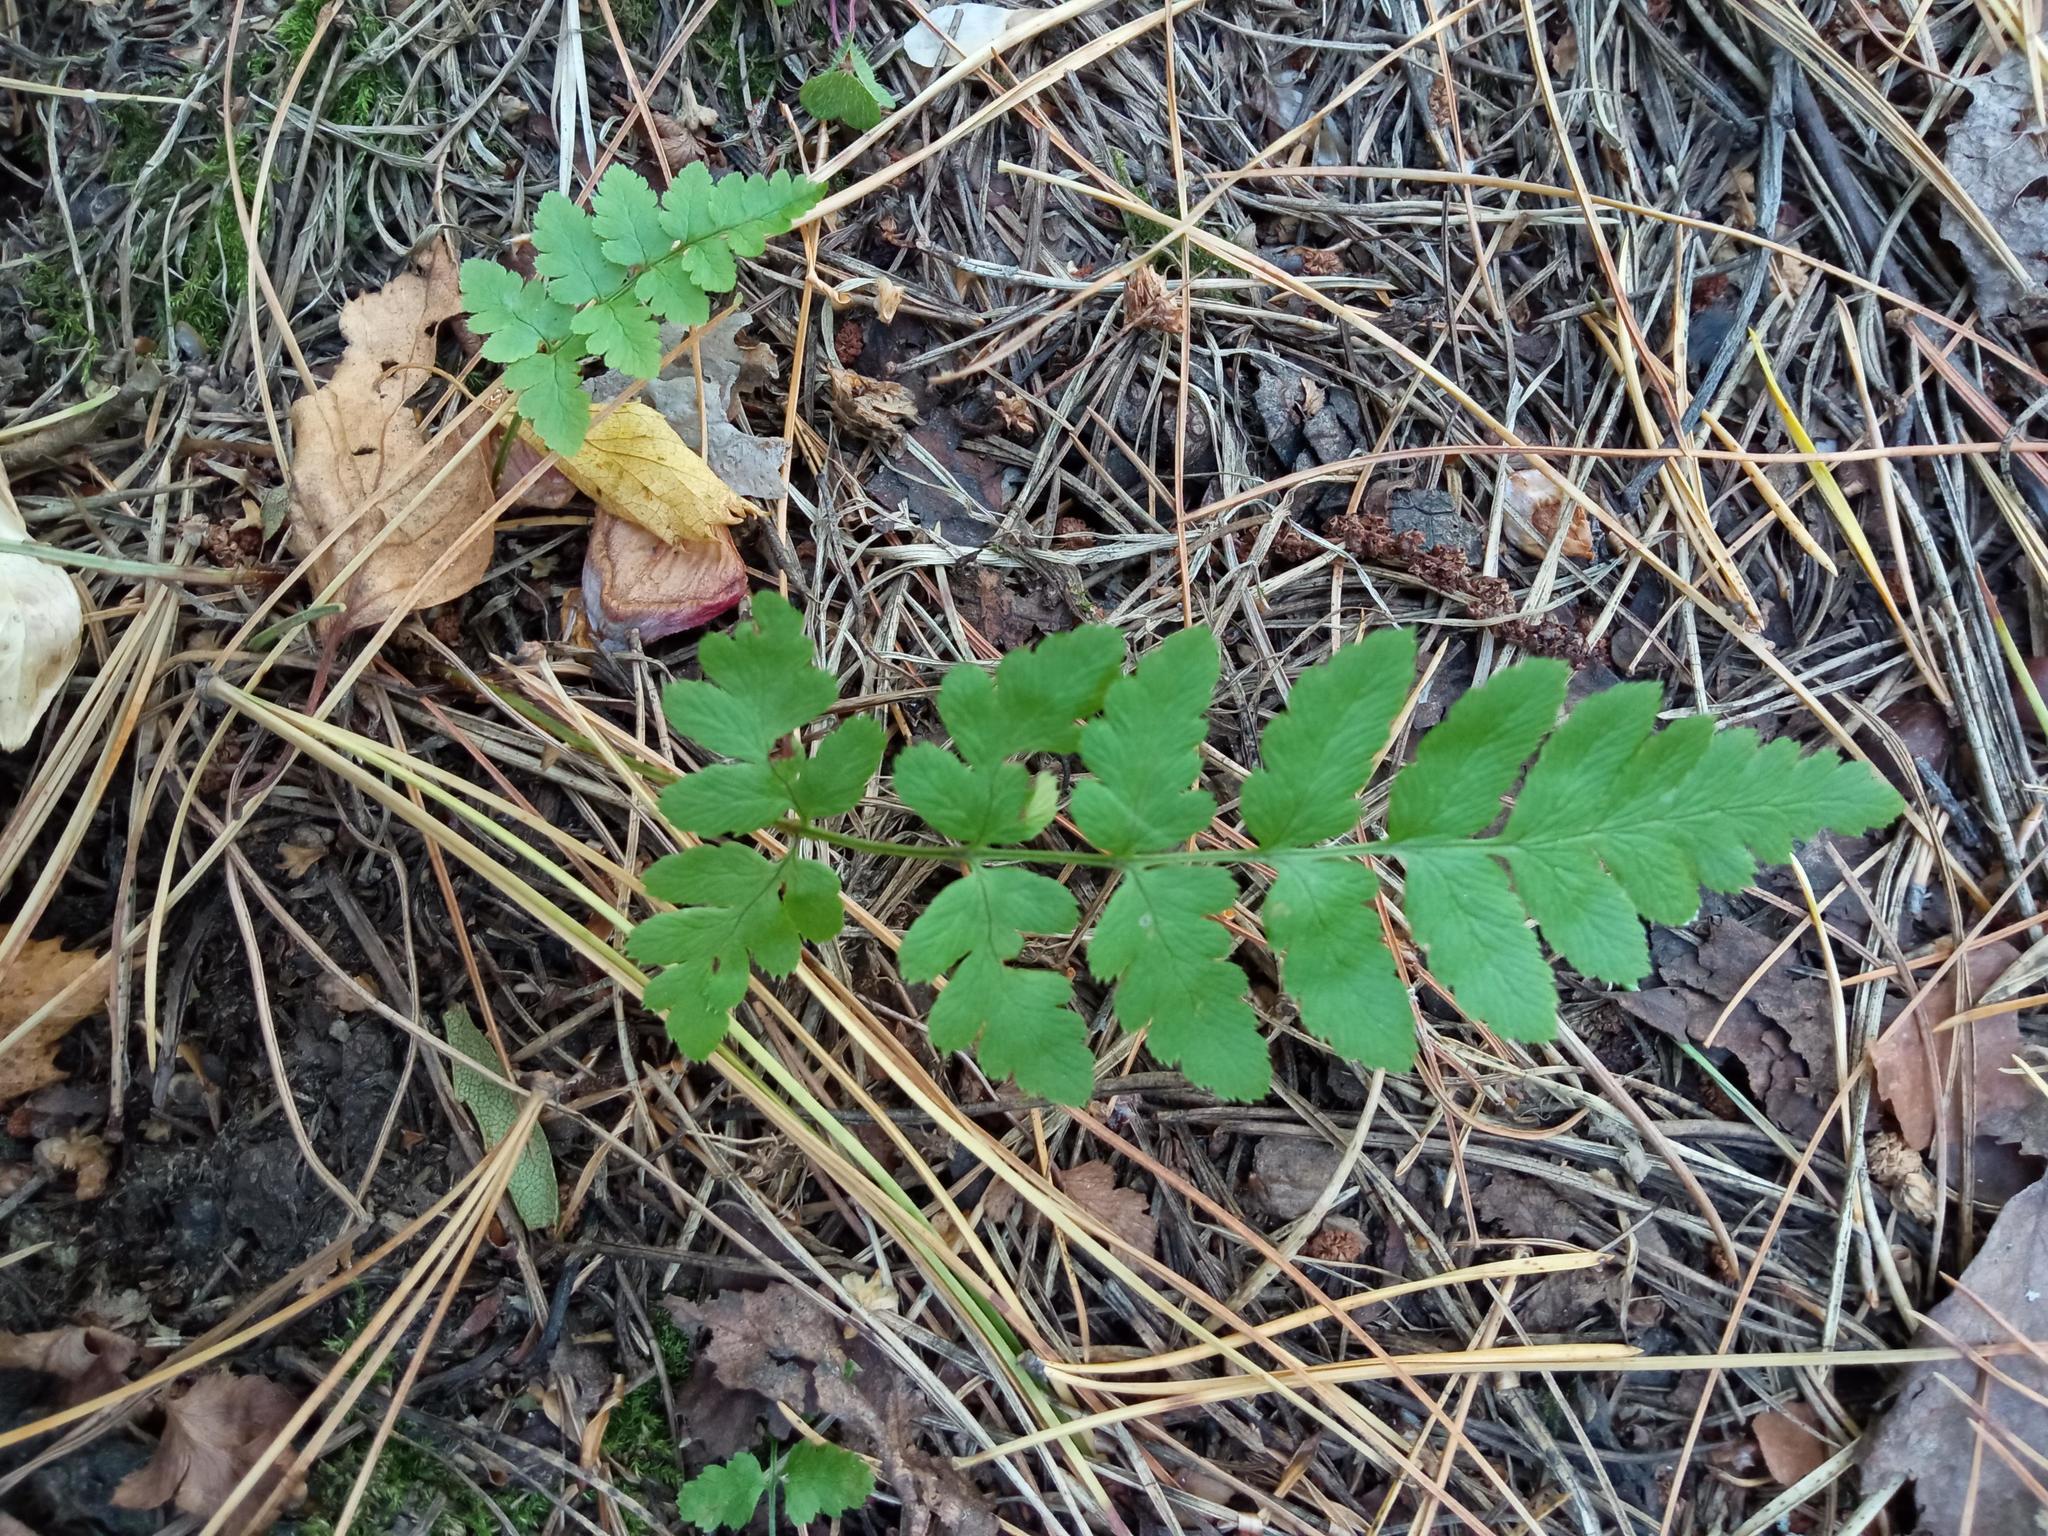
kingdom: Plantae
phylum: Tracheophyta
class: Polypodiopsida
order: Polypodiales
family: Dryopteridaceae
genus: Dryopteris
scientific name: Dryopteris cristata
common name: Crested wood fern
